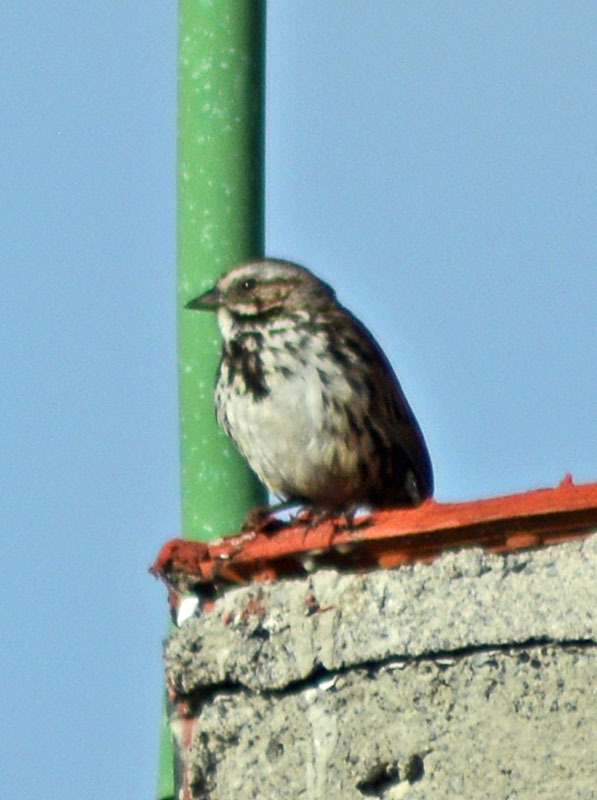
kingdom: Animalia
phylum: Chordata
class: Aves
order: Passeriformes
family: Passerellidae
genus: Melospiza
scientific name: Melospiza melodia
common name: Song sparrow
